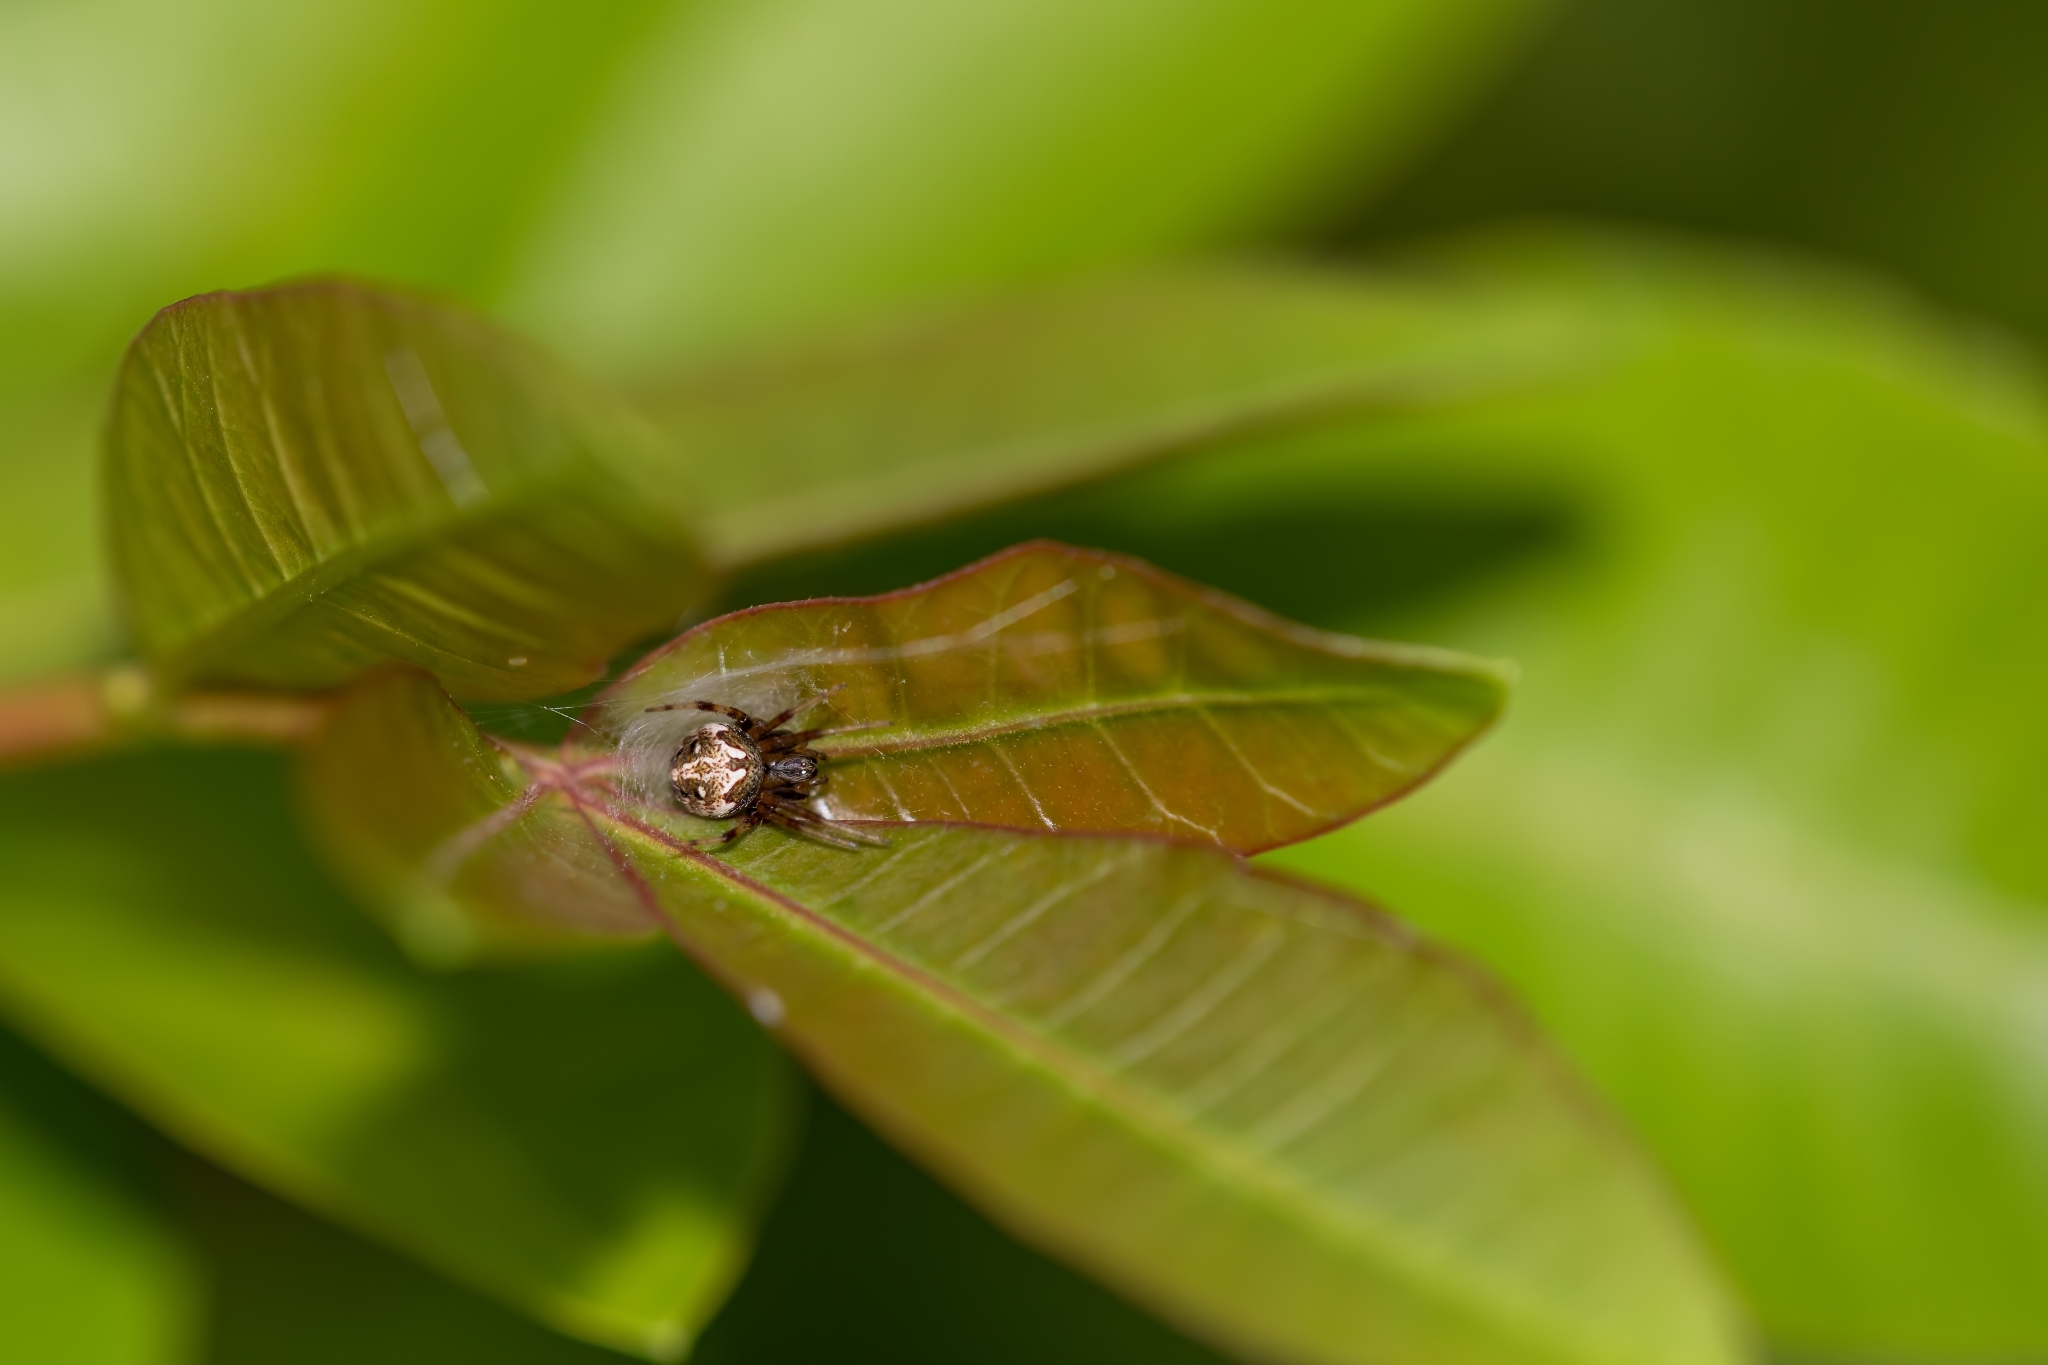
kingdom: Animalia
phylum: Arthropoda
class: Arachnida
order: Araneae
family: Araneidae
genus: Neoscona
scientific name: Neoscona arabesca
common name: Orb weavers
